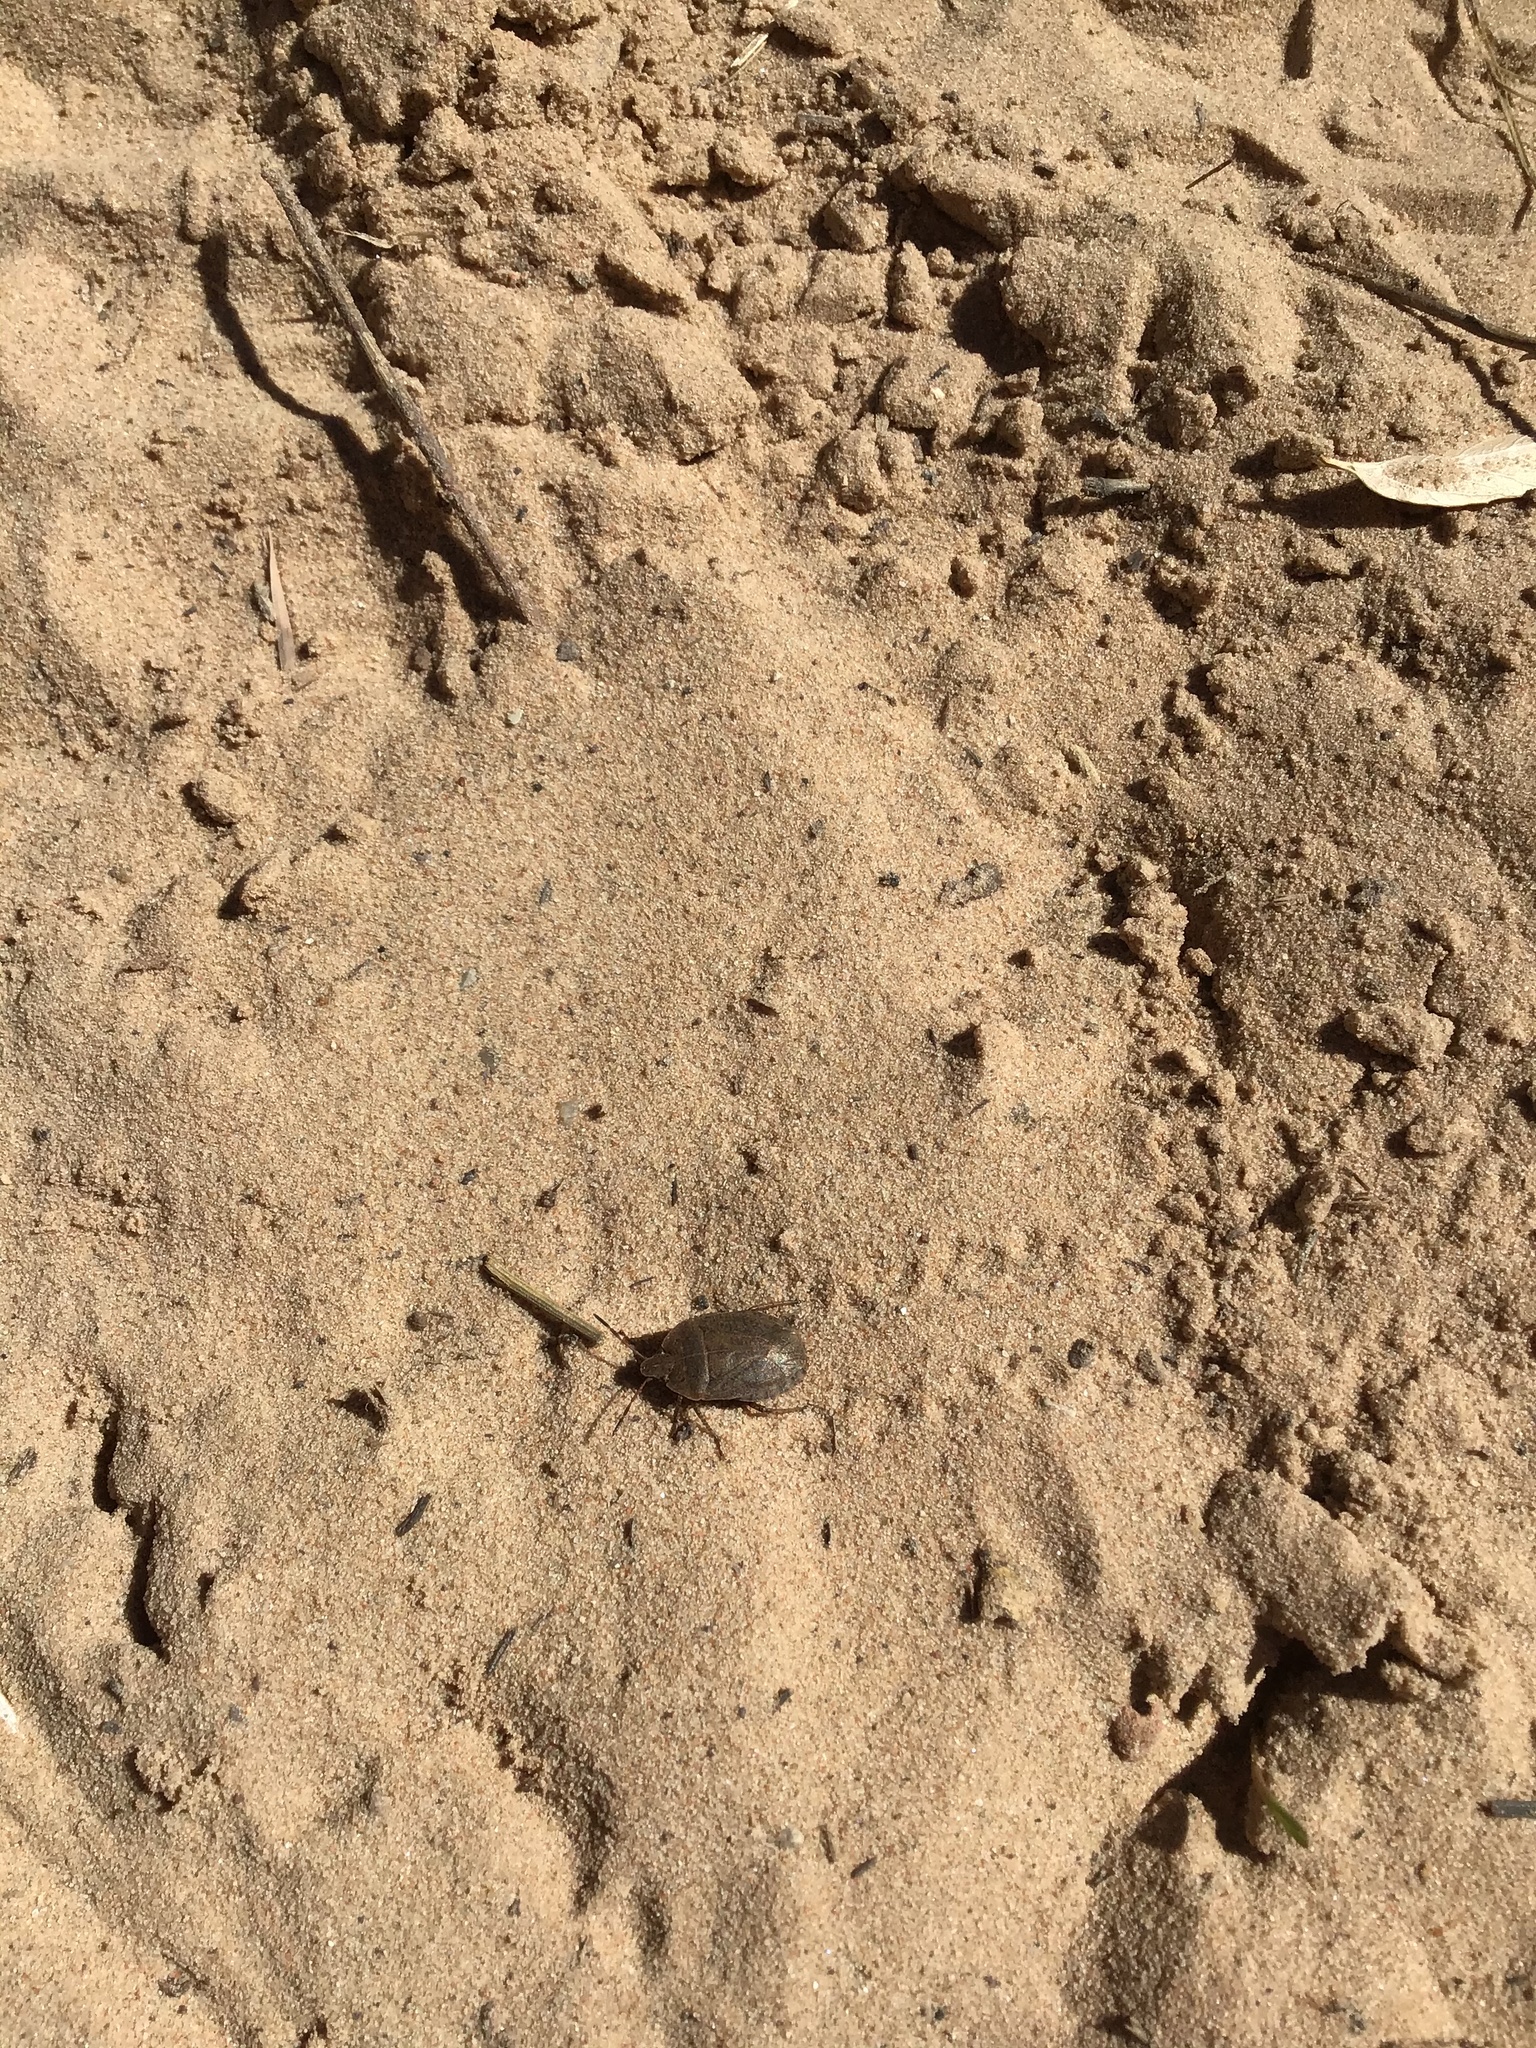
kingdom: Animalia
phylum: Arthropoda
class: Insecta
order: Hemiptera
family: Pentatomidae
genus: Menecles
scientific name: Menecles insertus
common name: Elf shoe stink bug
